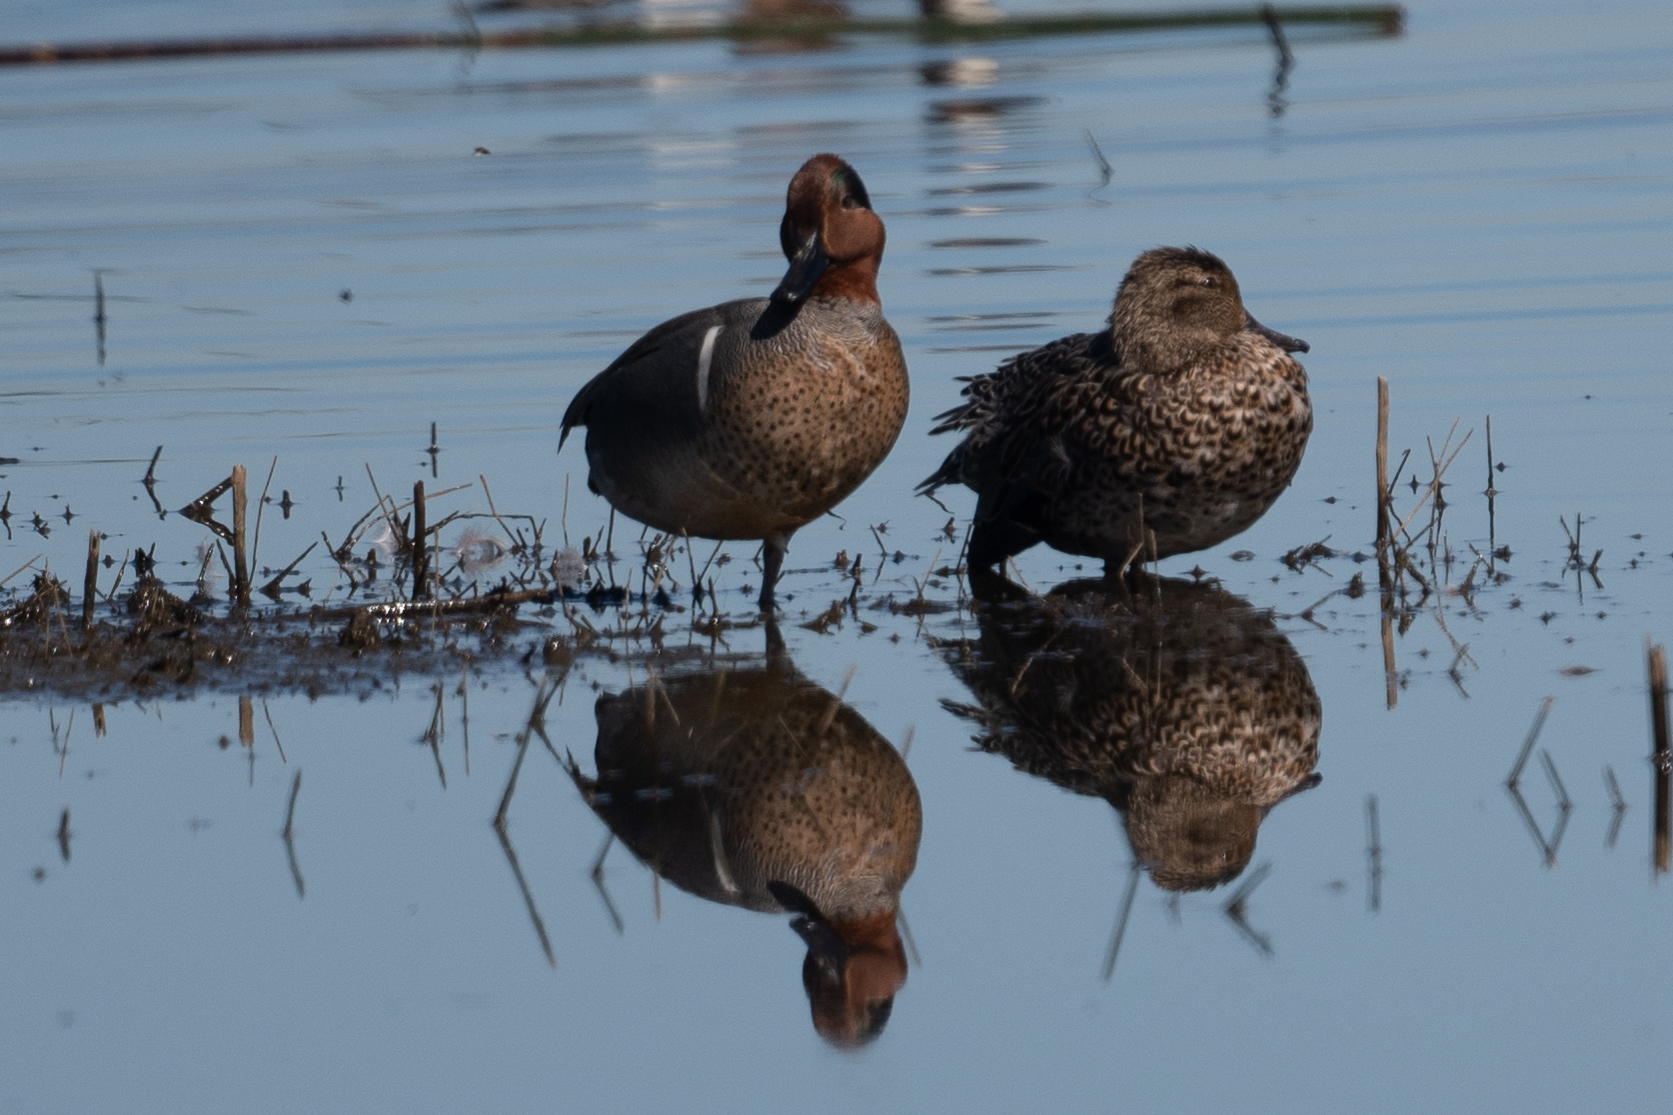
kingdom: Animalia
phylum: Chordata
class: Aves
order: Anseriformes
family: Anatidae
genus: Anas
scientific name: Anas crecca
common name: Eurasian teal
